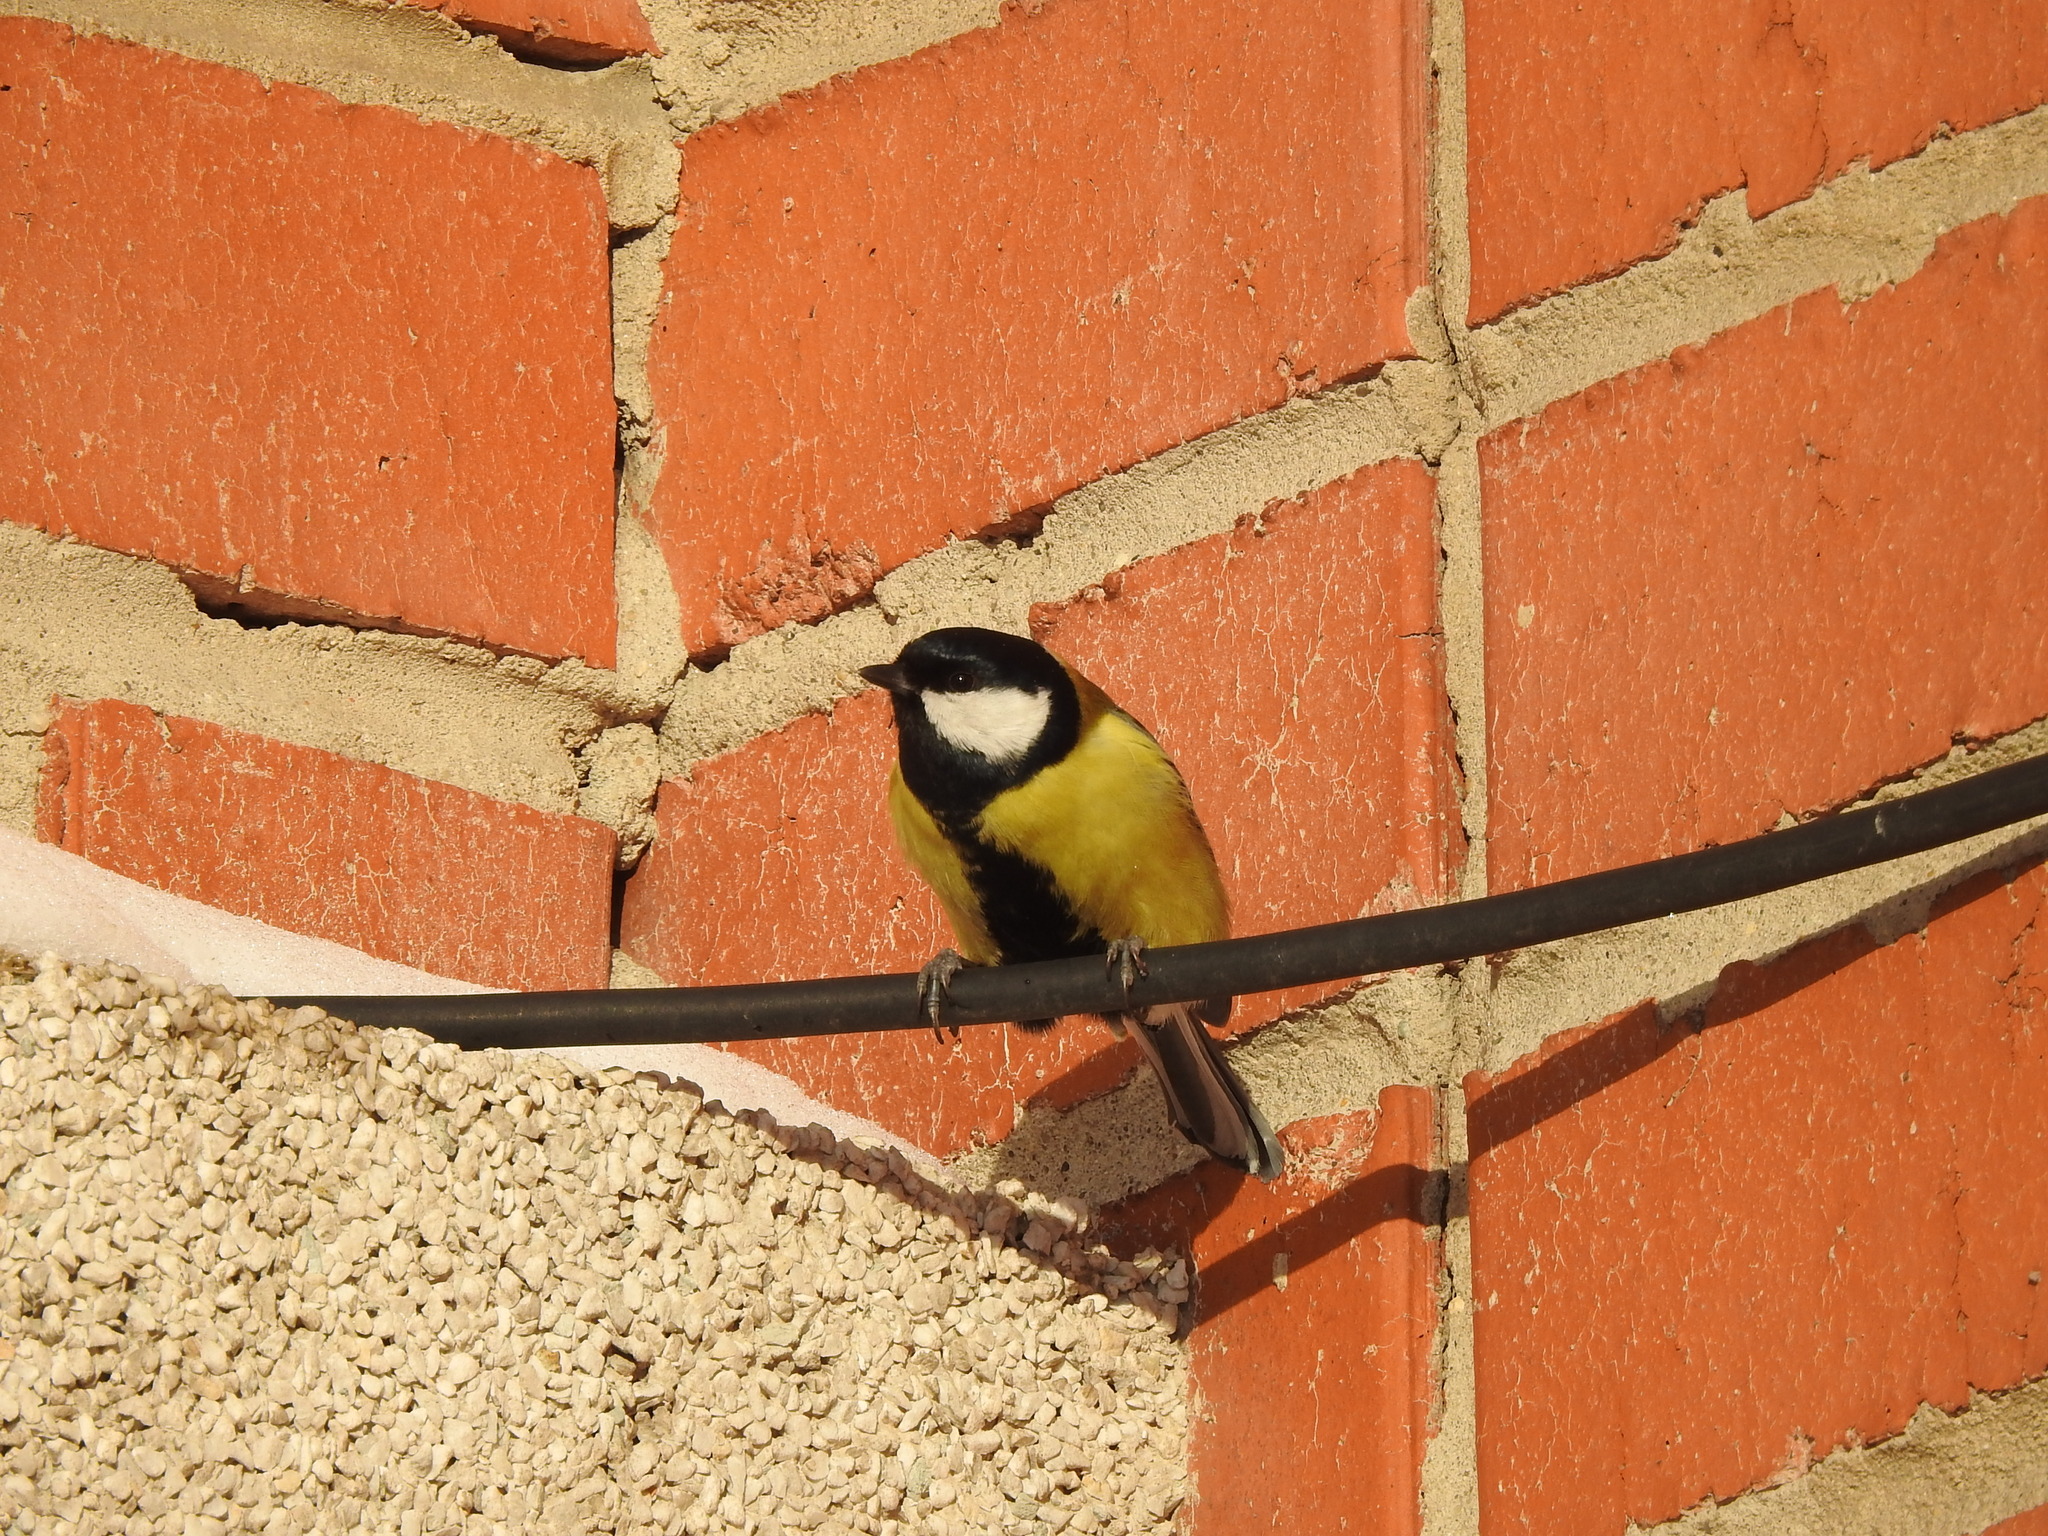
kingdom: Animalia
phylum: Chordata
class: Aves
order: Passeriformes
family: Paridae
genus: Parus
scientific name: Parus major
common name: Great tit
